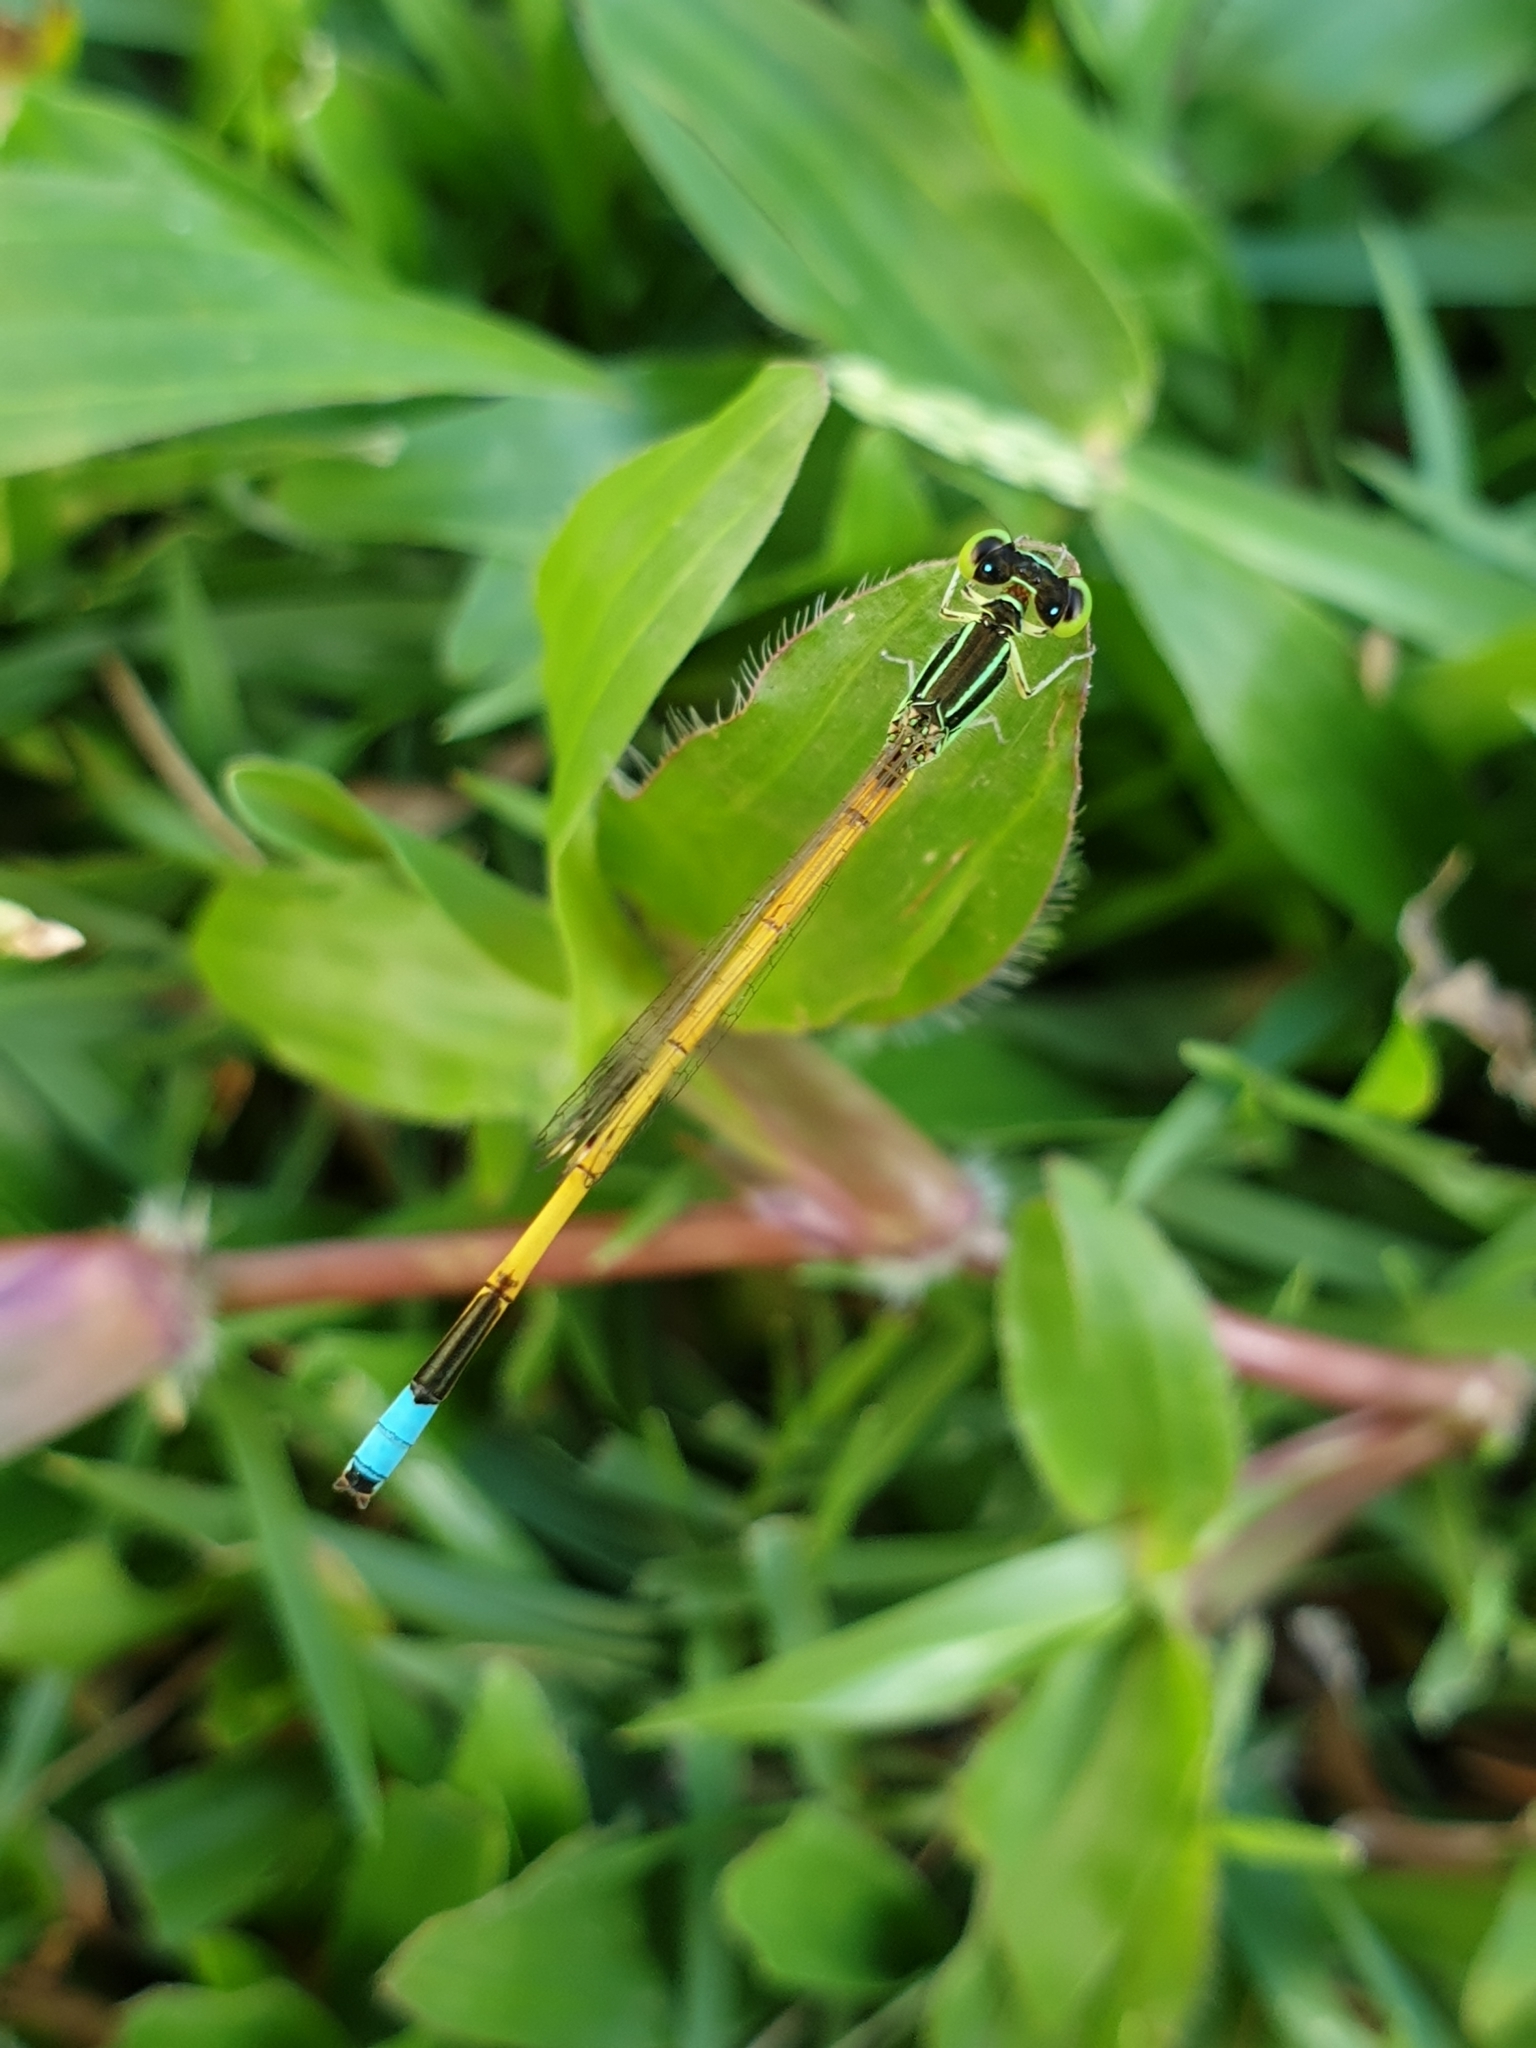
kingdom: Animalia
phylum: Arthropoda
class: Insecta
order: Odonata
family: Coenagrionidae
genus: Ischnura
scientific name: Ischnura rubilio
